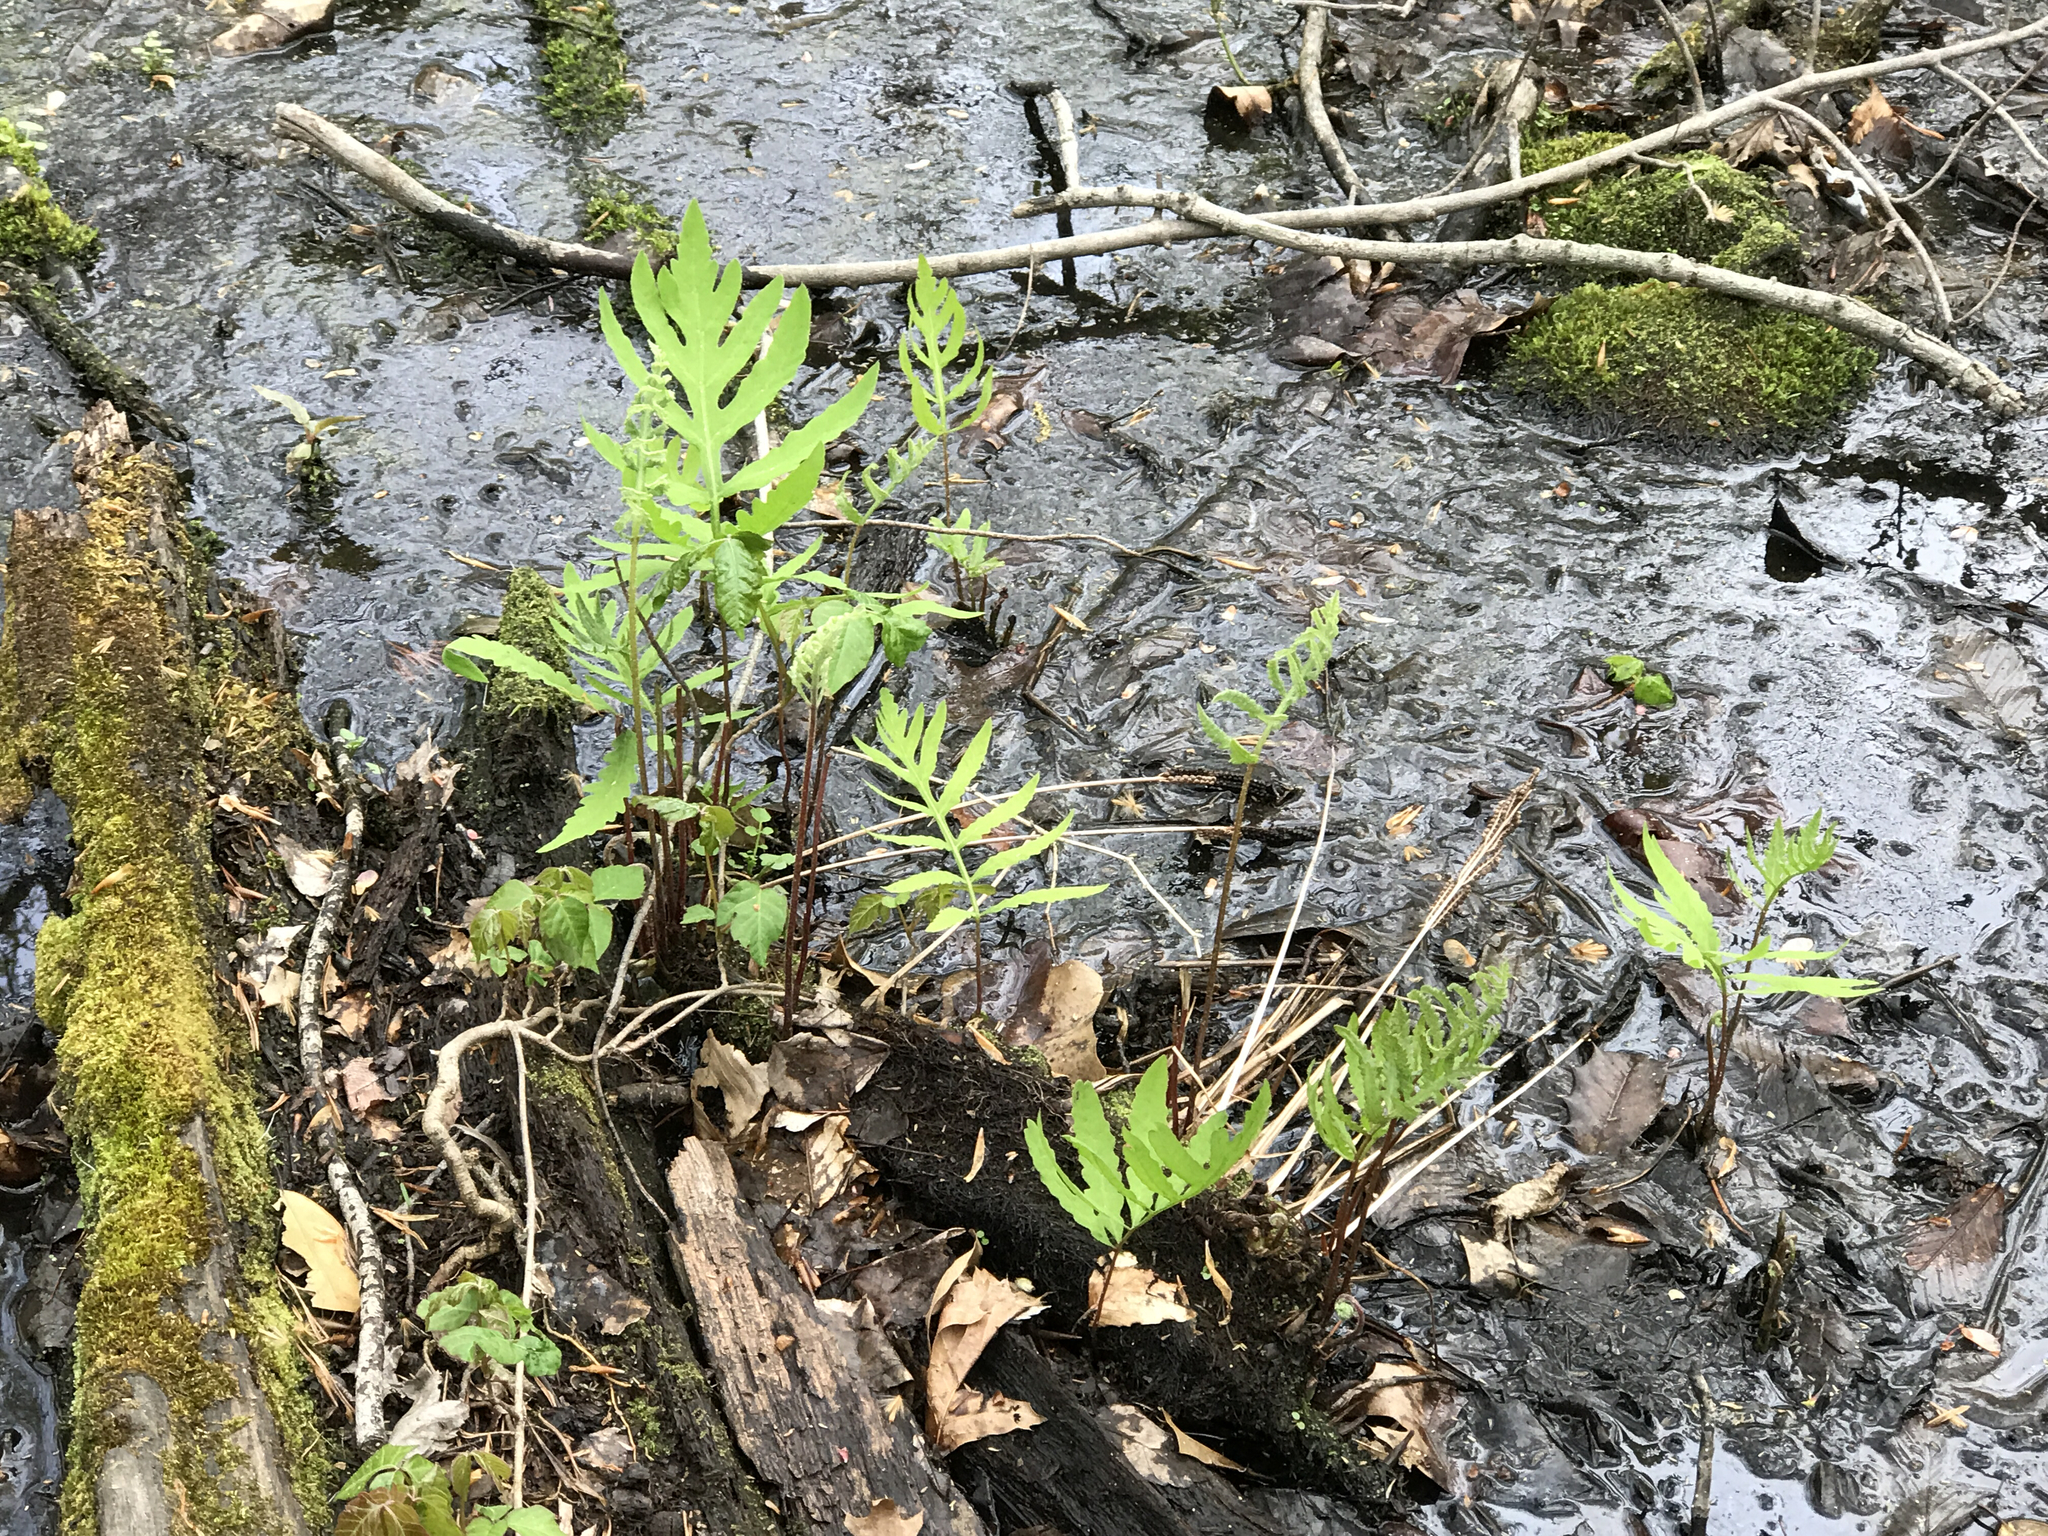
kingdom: Plantae
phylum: Tracheophyta
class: Polypodiopsida
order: Polypodiales
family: Onocleaceae
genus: Onoclea
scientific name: Onoclea sensibilis
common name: Sensitive fern
